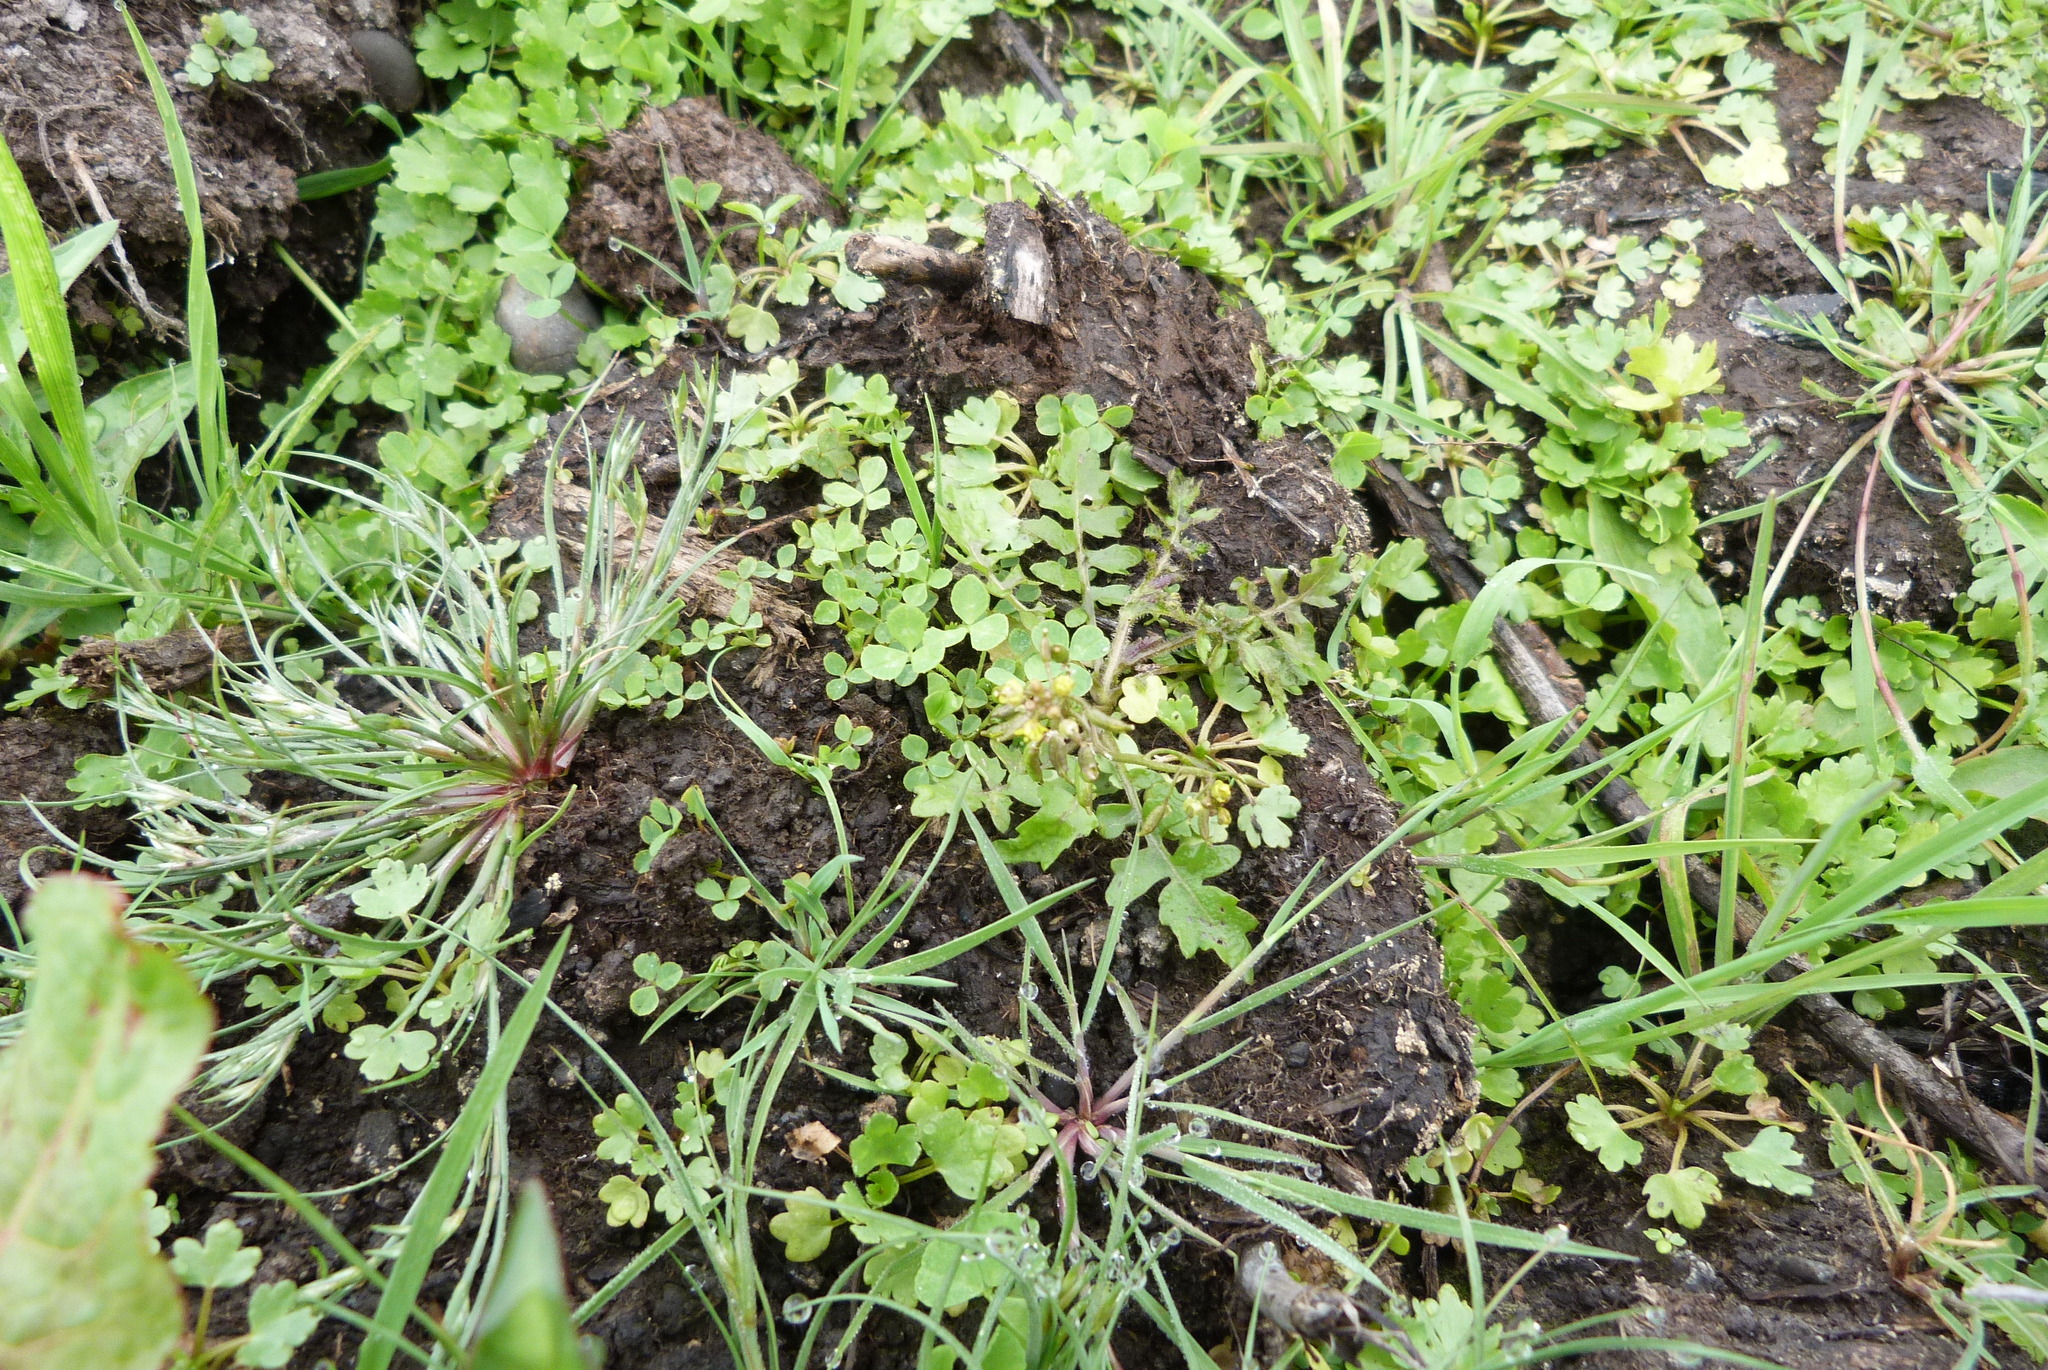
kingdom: Plantae
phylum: Tracheophyta
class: Liliopsida
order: Poales
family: Juncaceae
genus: Juncus
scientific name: Juncus bufonius
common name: Toad rush
